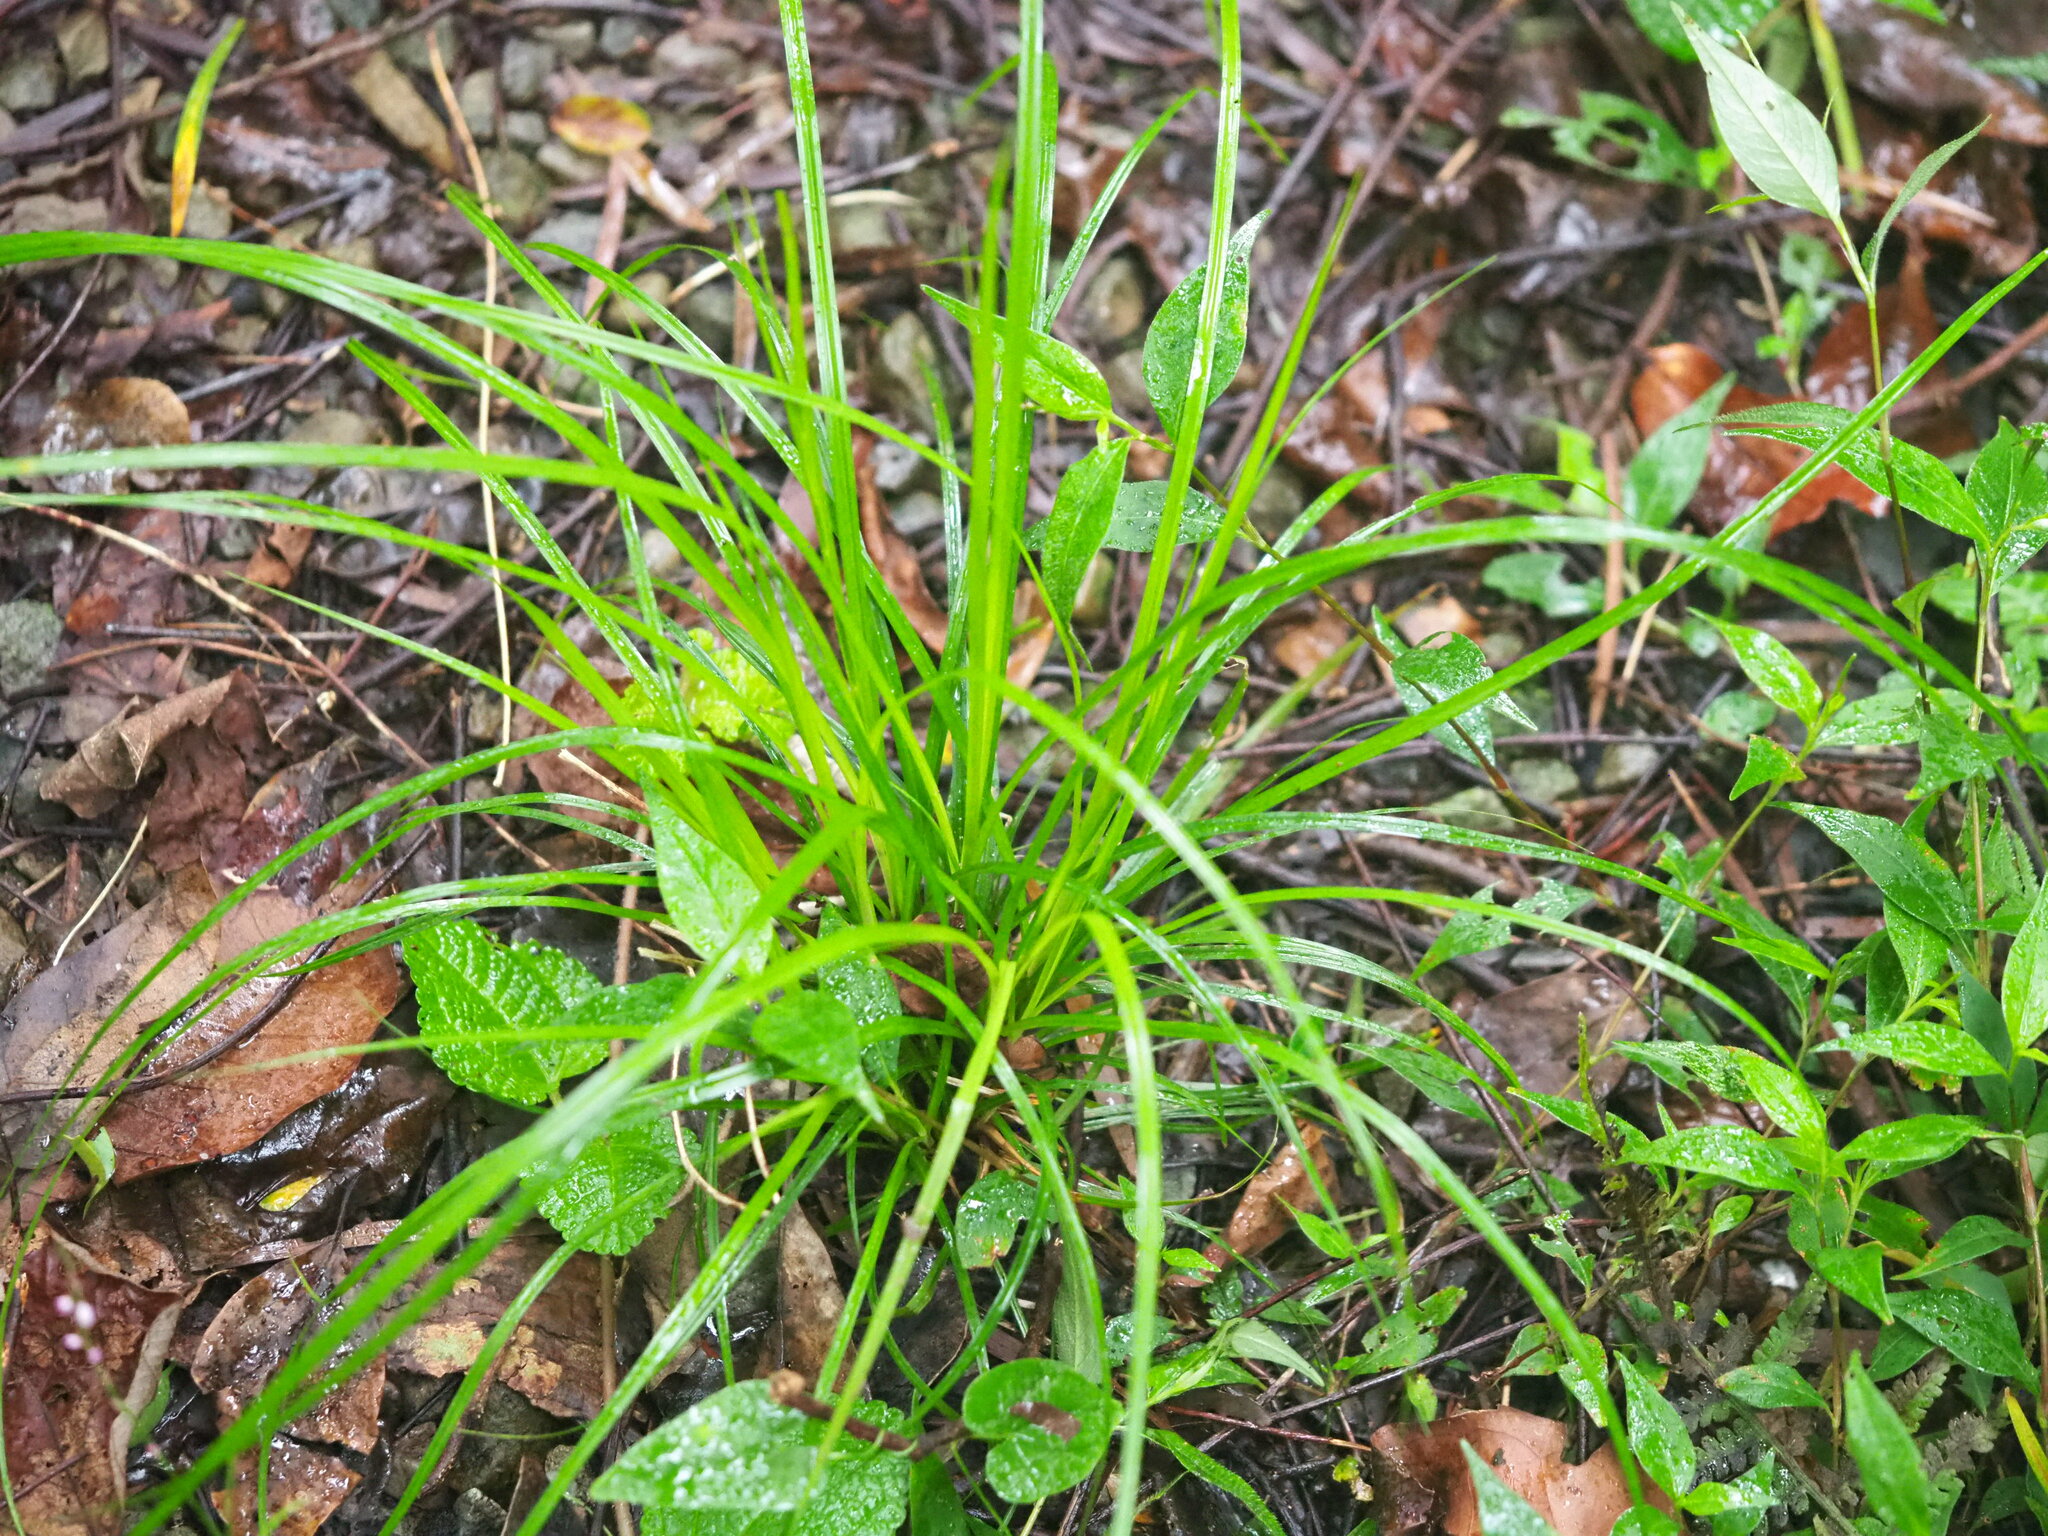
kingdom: Plantae
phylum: Tracheophyta
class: Liliopsida
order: Poales
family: Cyperaceae
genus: Carex
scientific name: Carex brunnea
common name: Greater brown sedge
